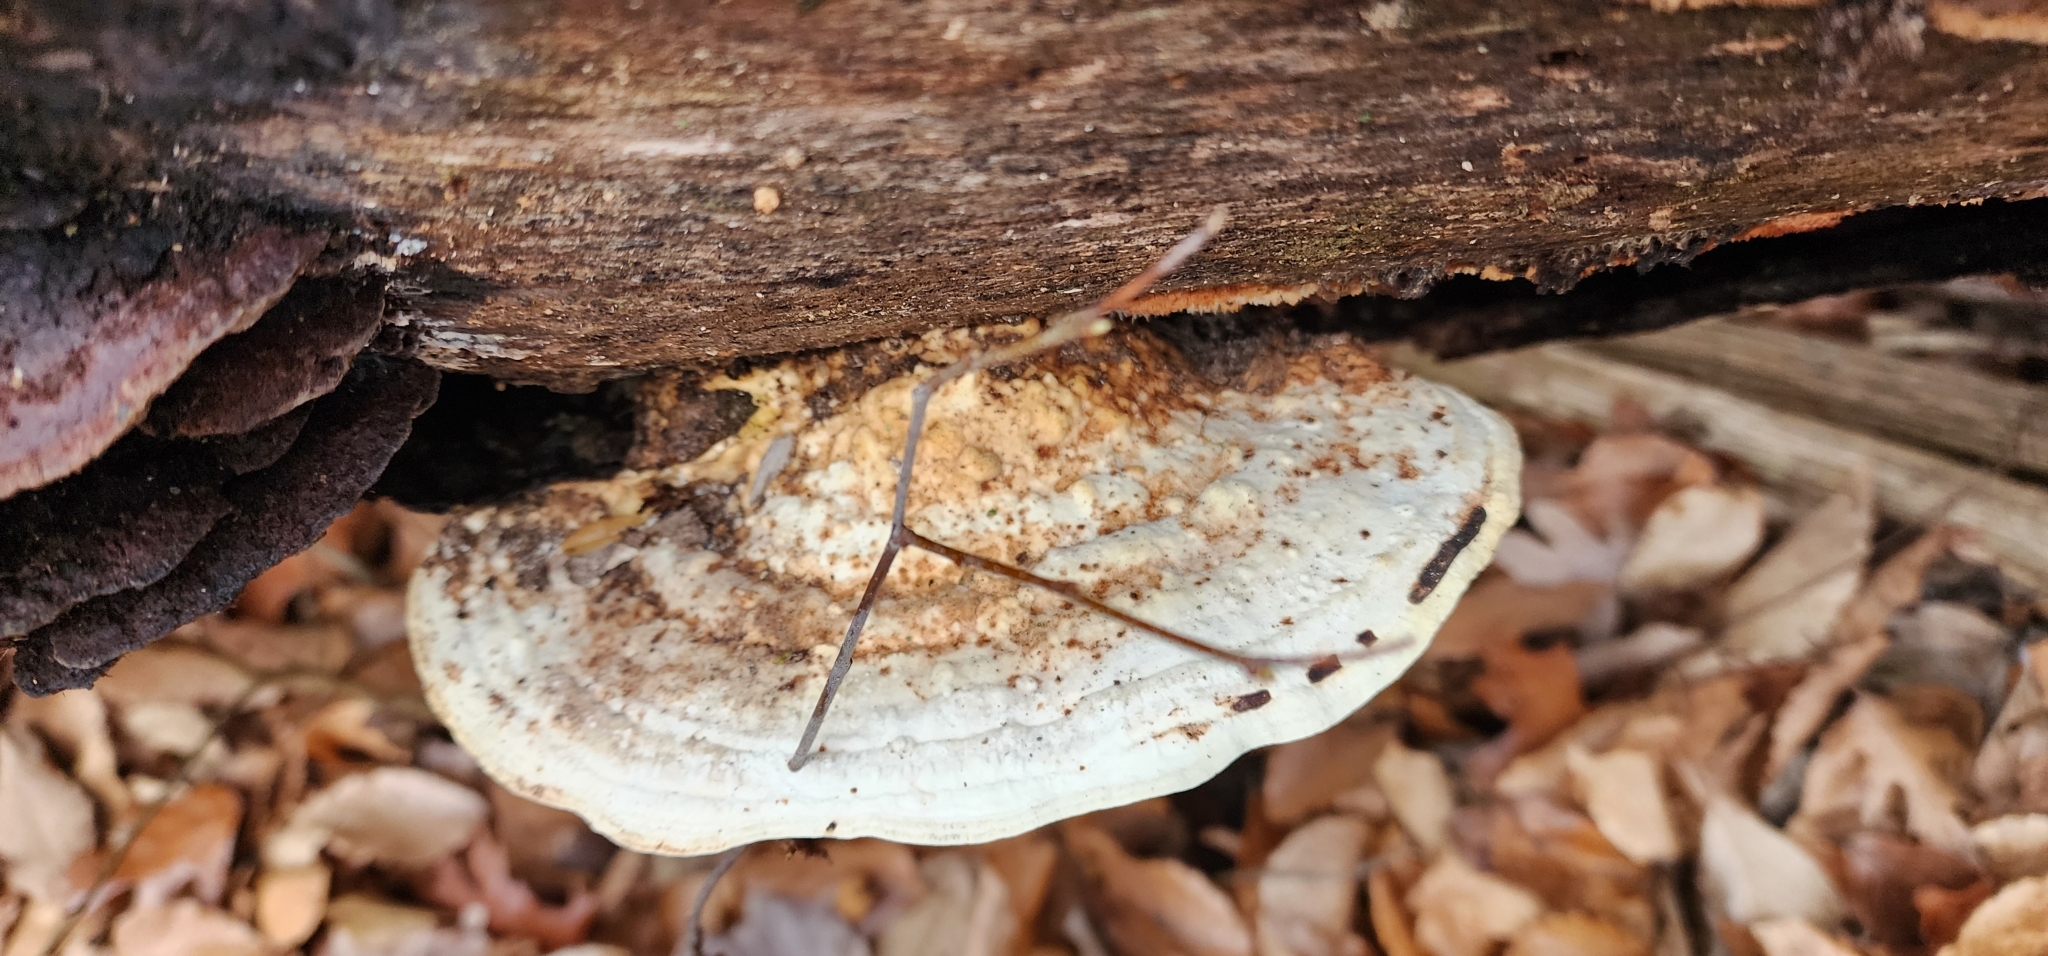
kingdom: Fungi
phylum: Basidiomycota
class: Agaricomycetes
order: Polyporales
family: Polyporaceae
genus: Trametes
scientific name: Trametes gibbosa
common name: Lumpy bracket
